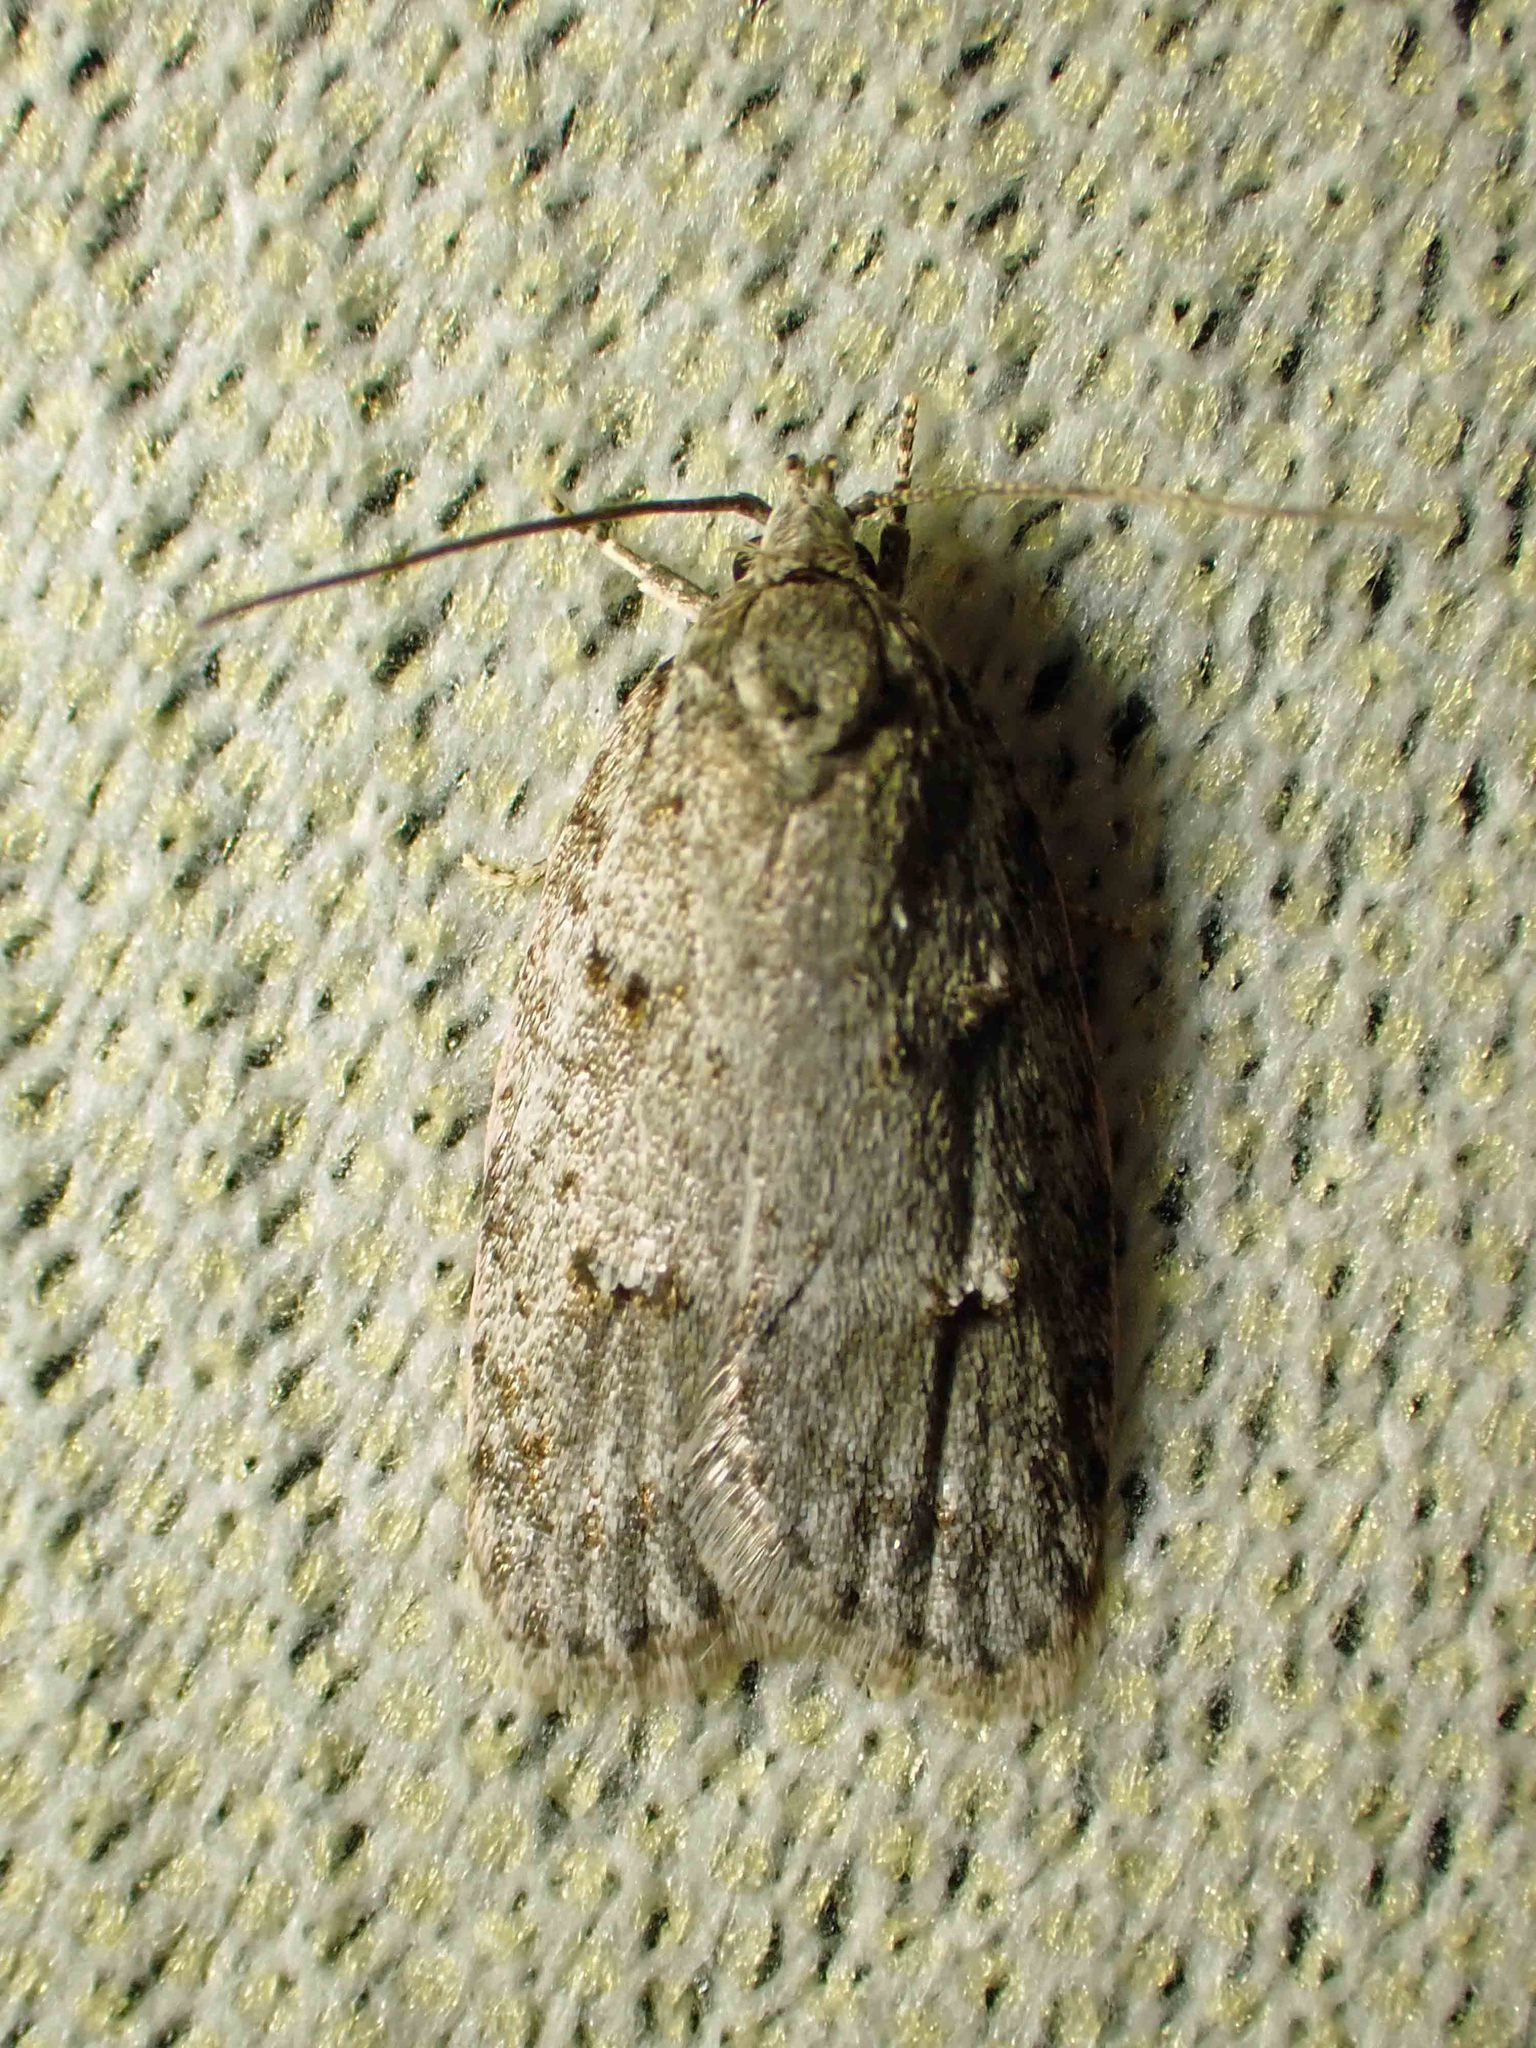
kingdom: Animalia
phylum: Arthropoda
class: Insecta
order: Lepidoptera
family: Depressariidae
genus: Bibarrambla
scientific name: Bibarrambla allenella
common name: Bog bibarrambla moth
